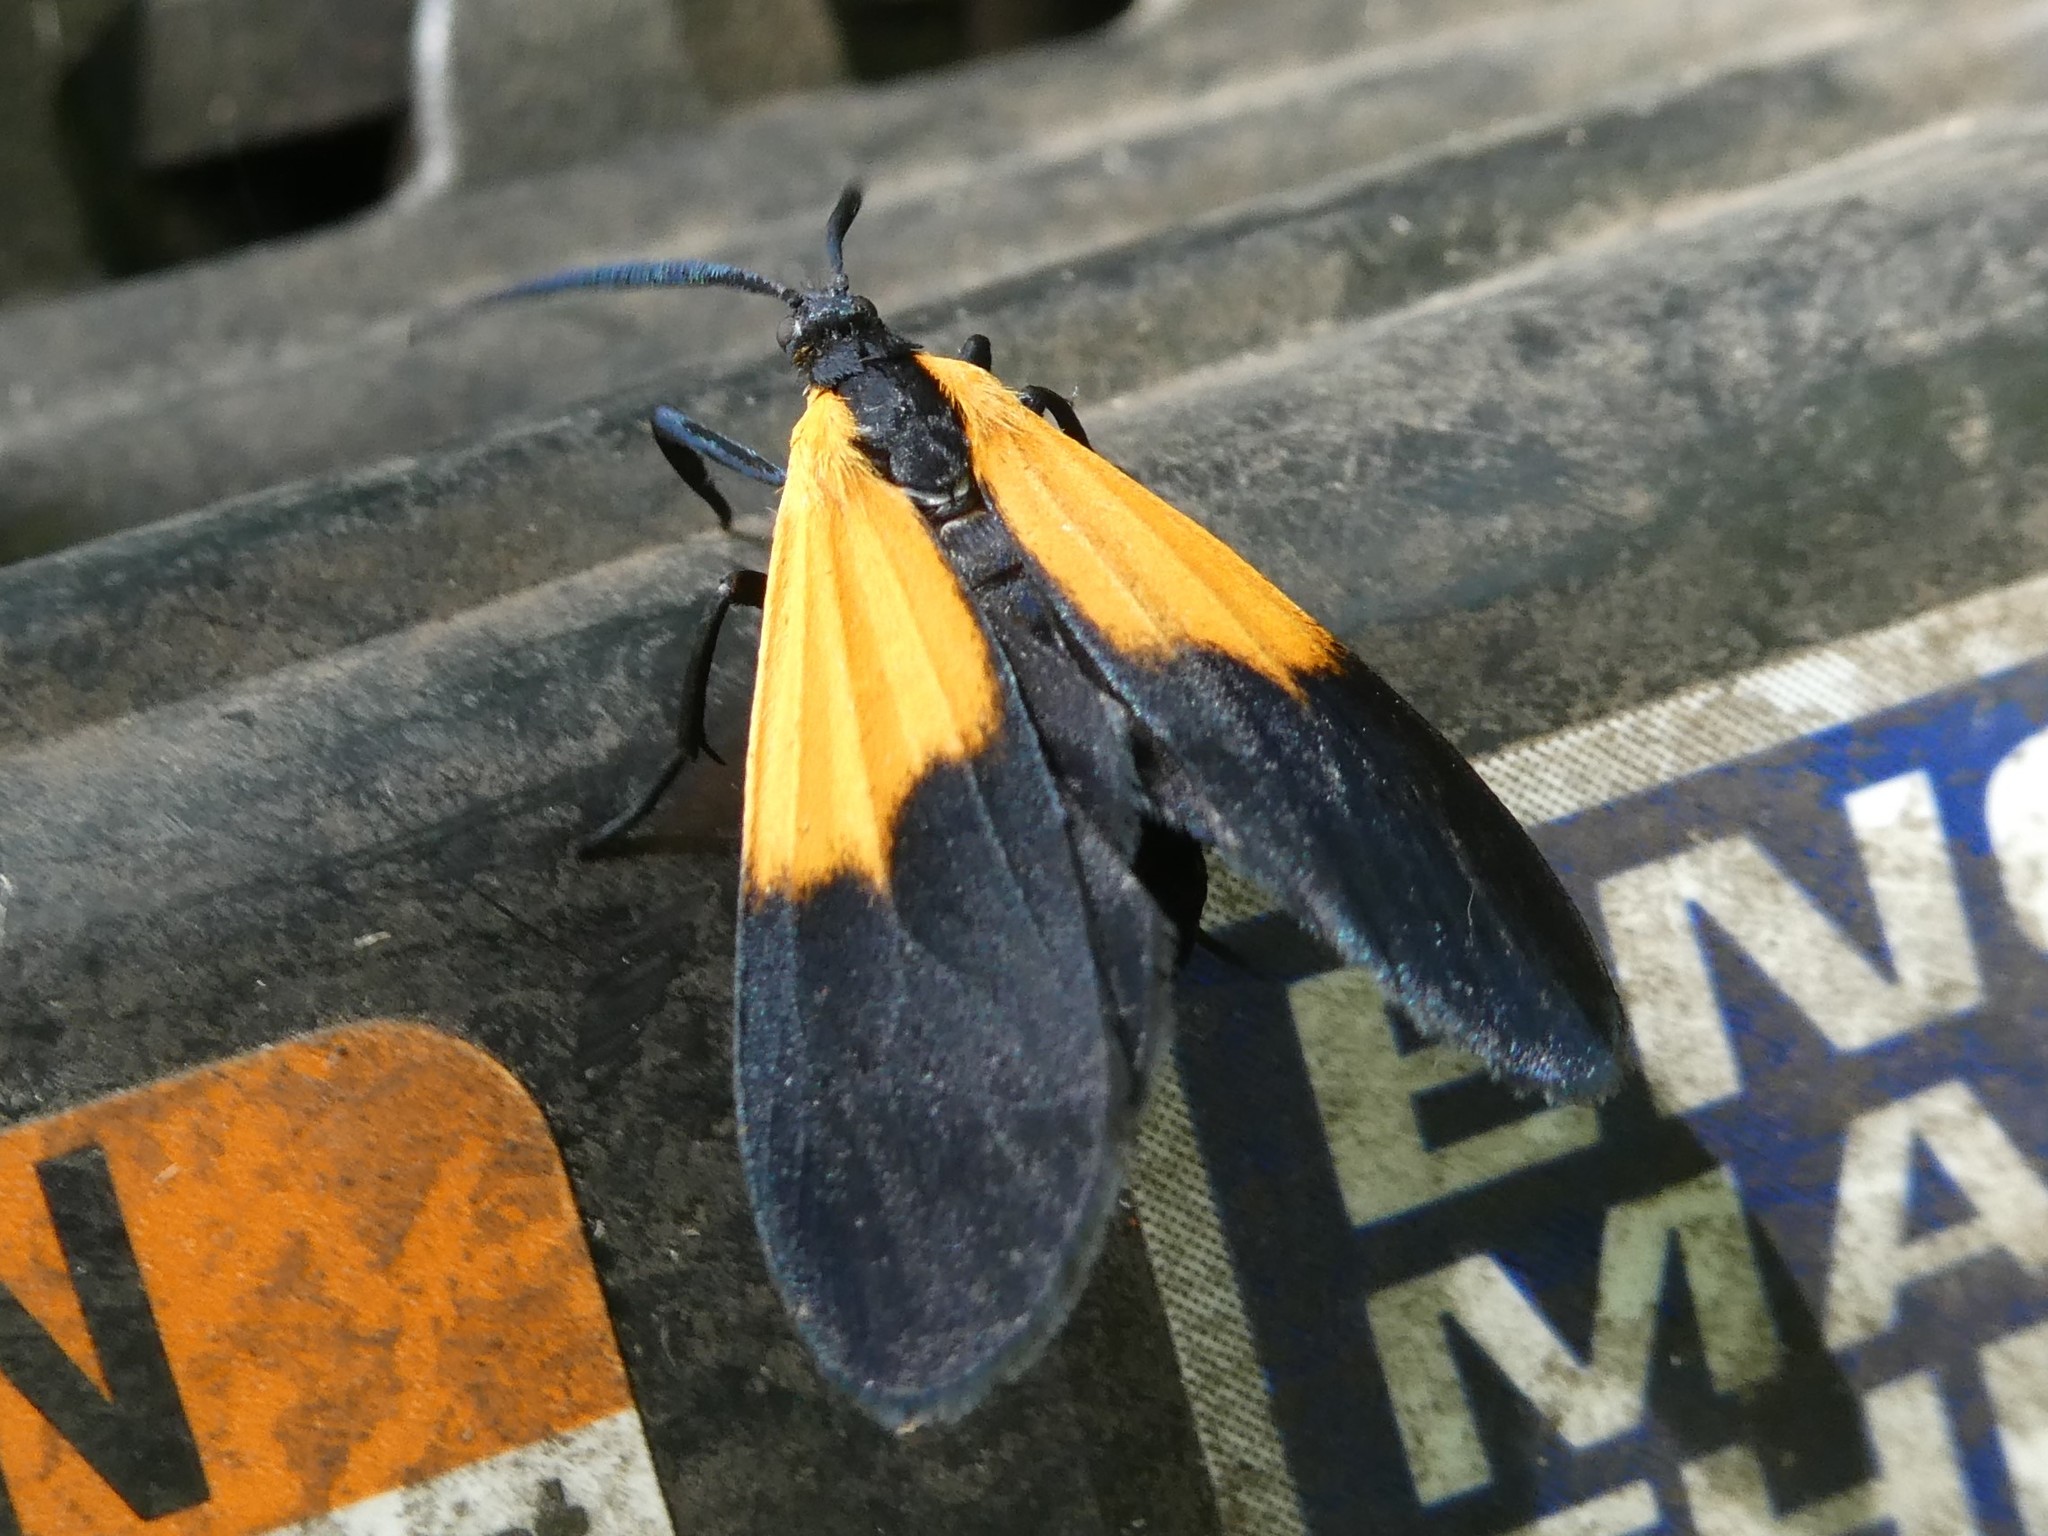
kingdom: Animalia
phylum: Arthropoda
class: Insecta
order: Lepidoptera
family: Erebidae
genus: Lycomorpha
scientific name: Lycomorpha pholus
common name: Black-and-yellow lichen moth
